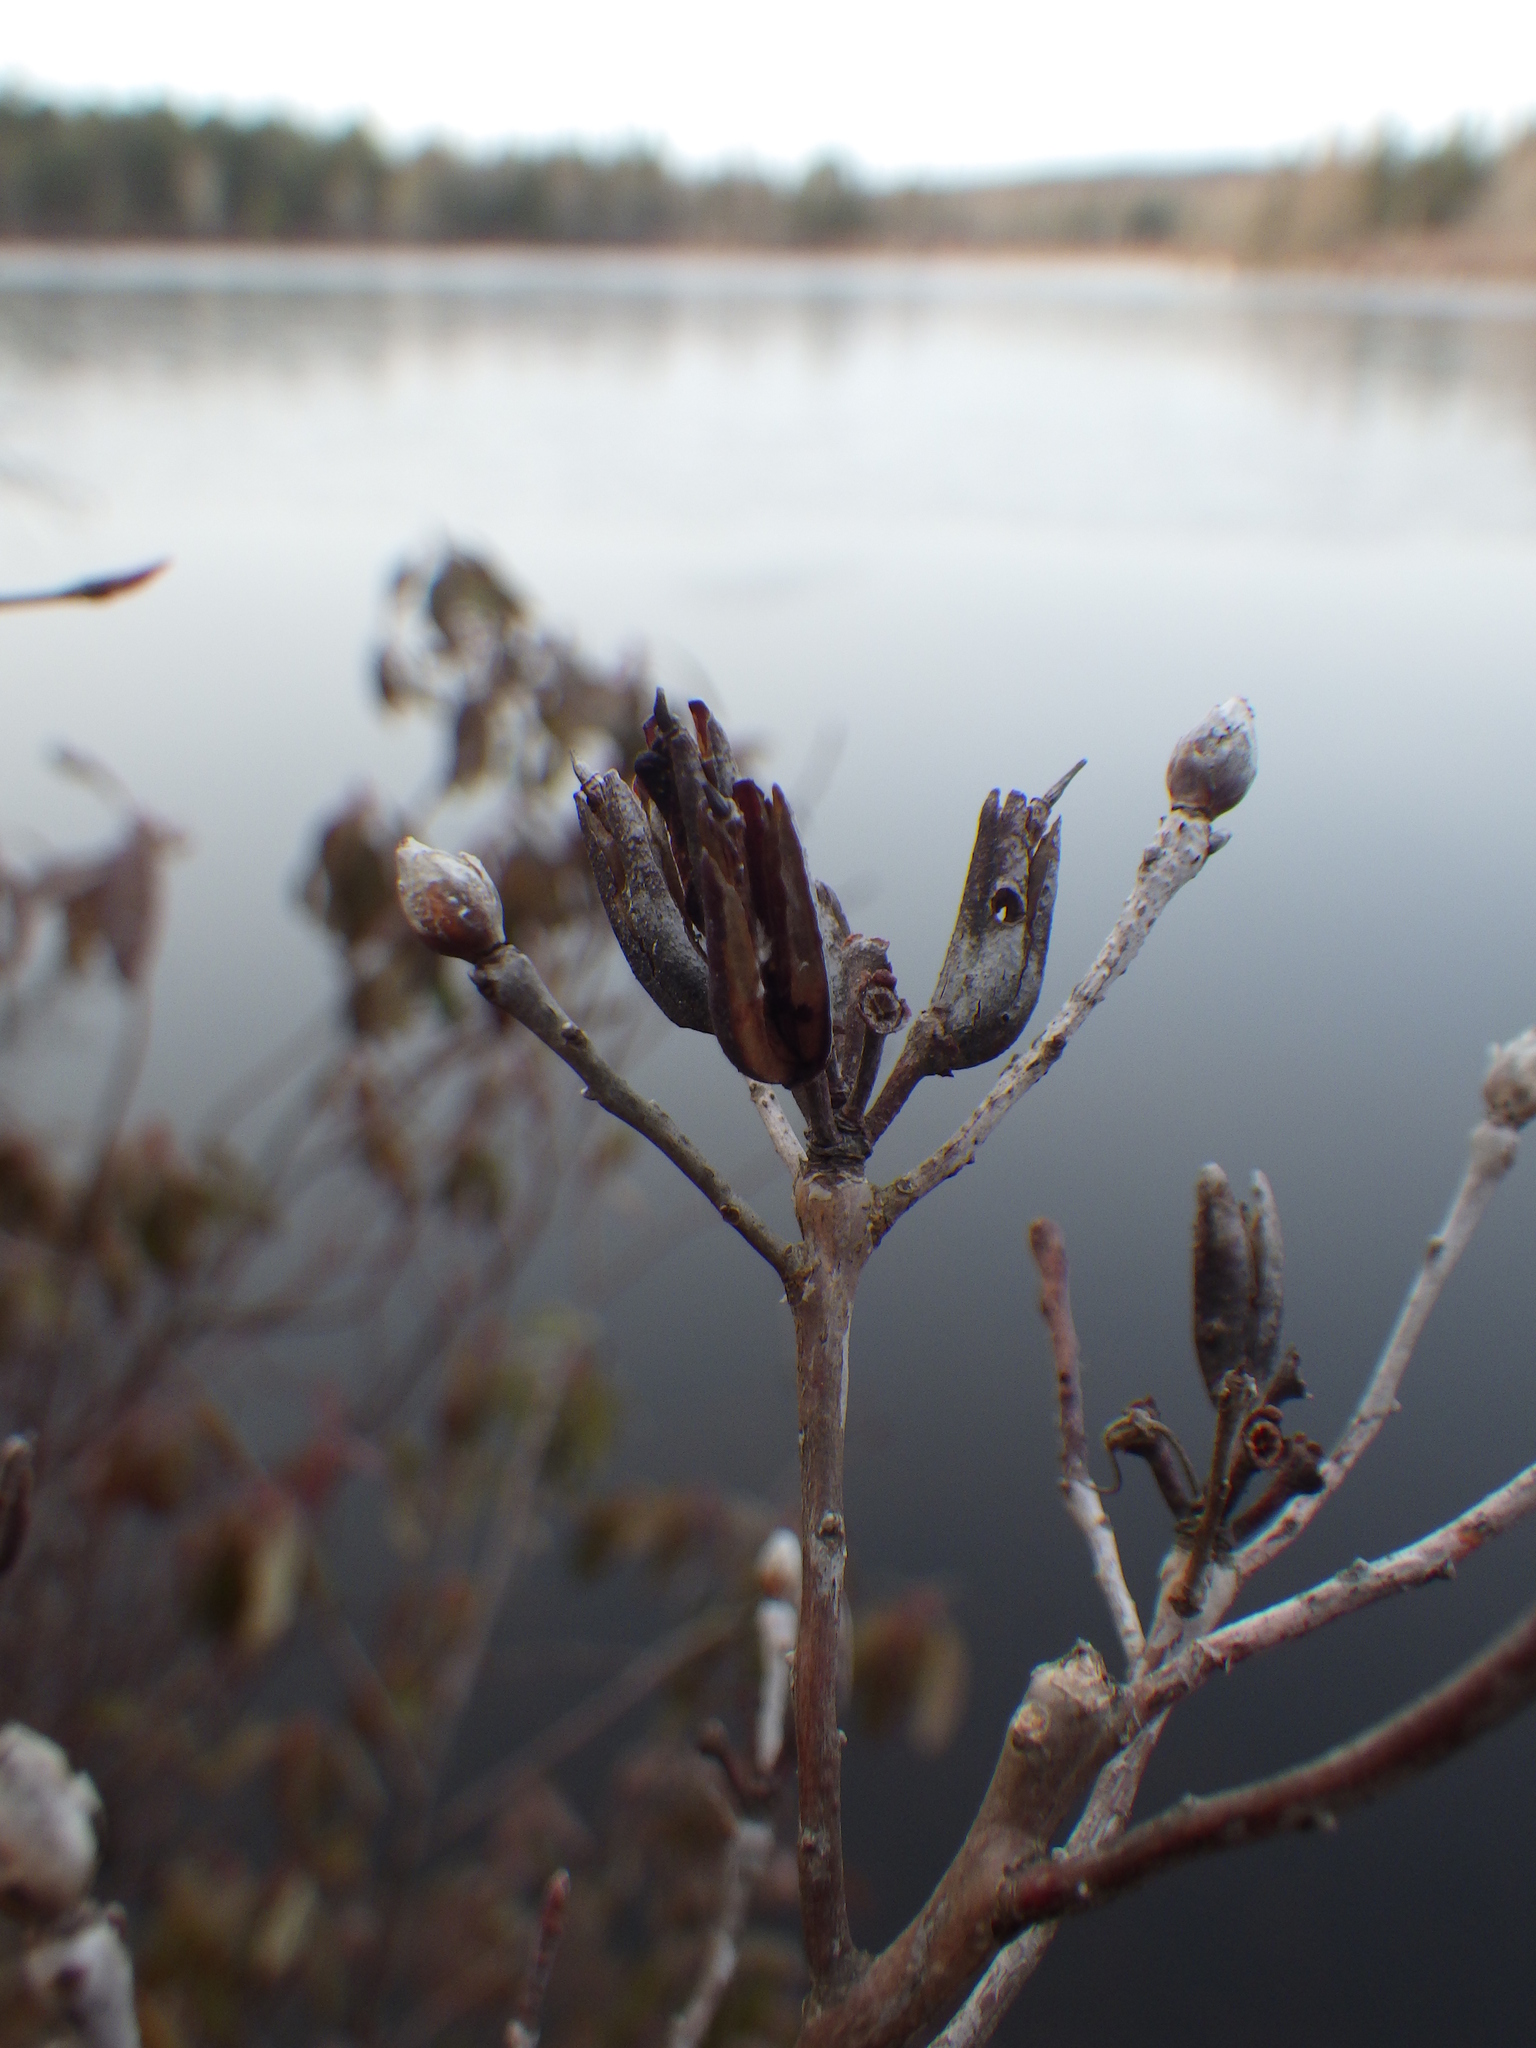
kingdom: Plantae
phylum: Tracheophyta
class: Magnoliopsida
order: Ericales
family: Ericaceae
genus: Rhododendron
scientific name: Rhododendron canadense
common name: Rhodora
